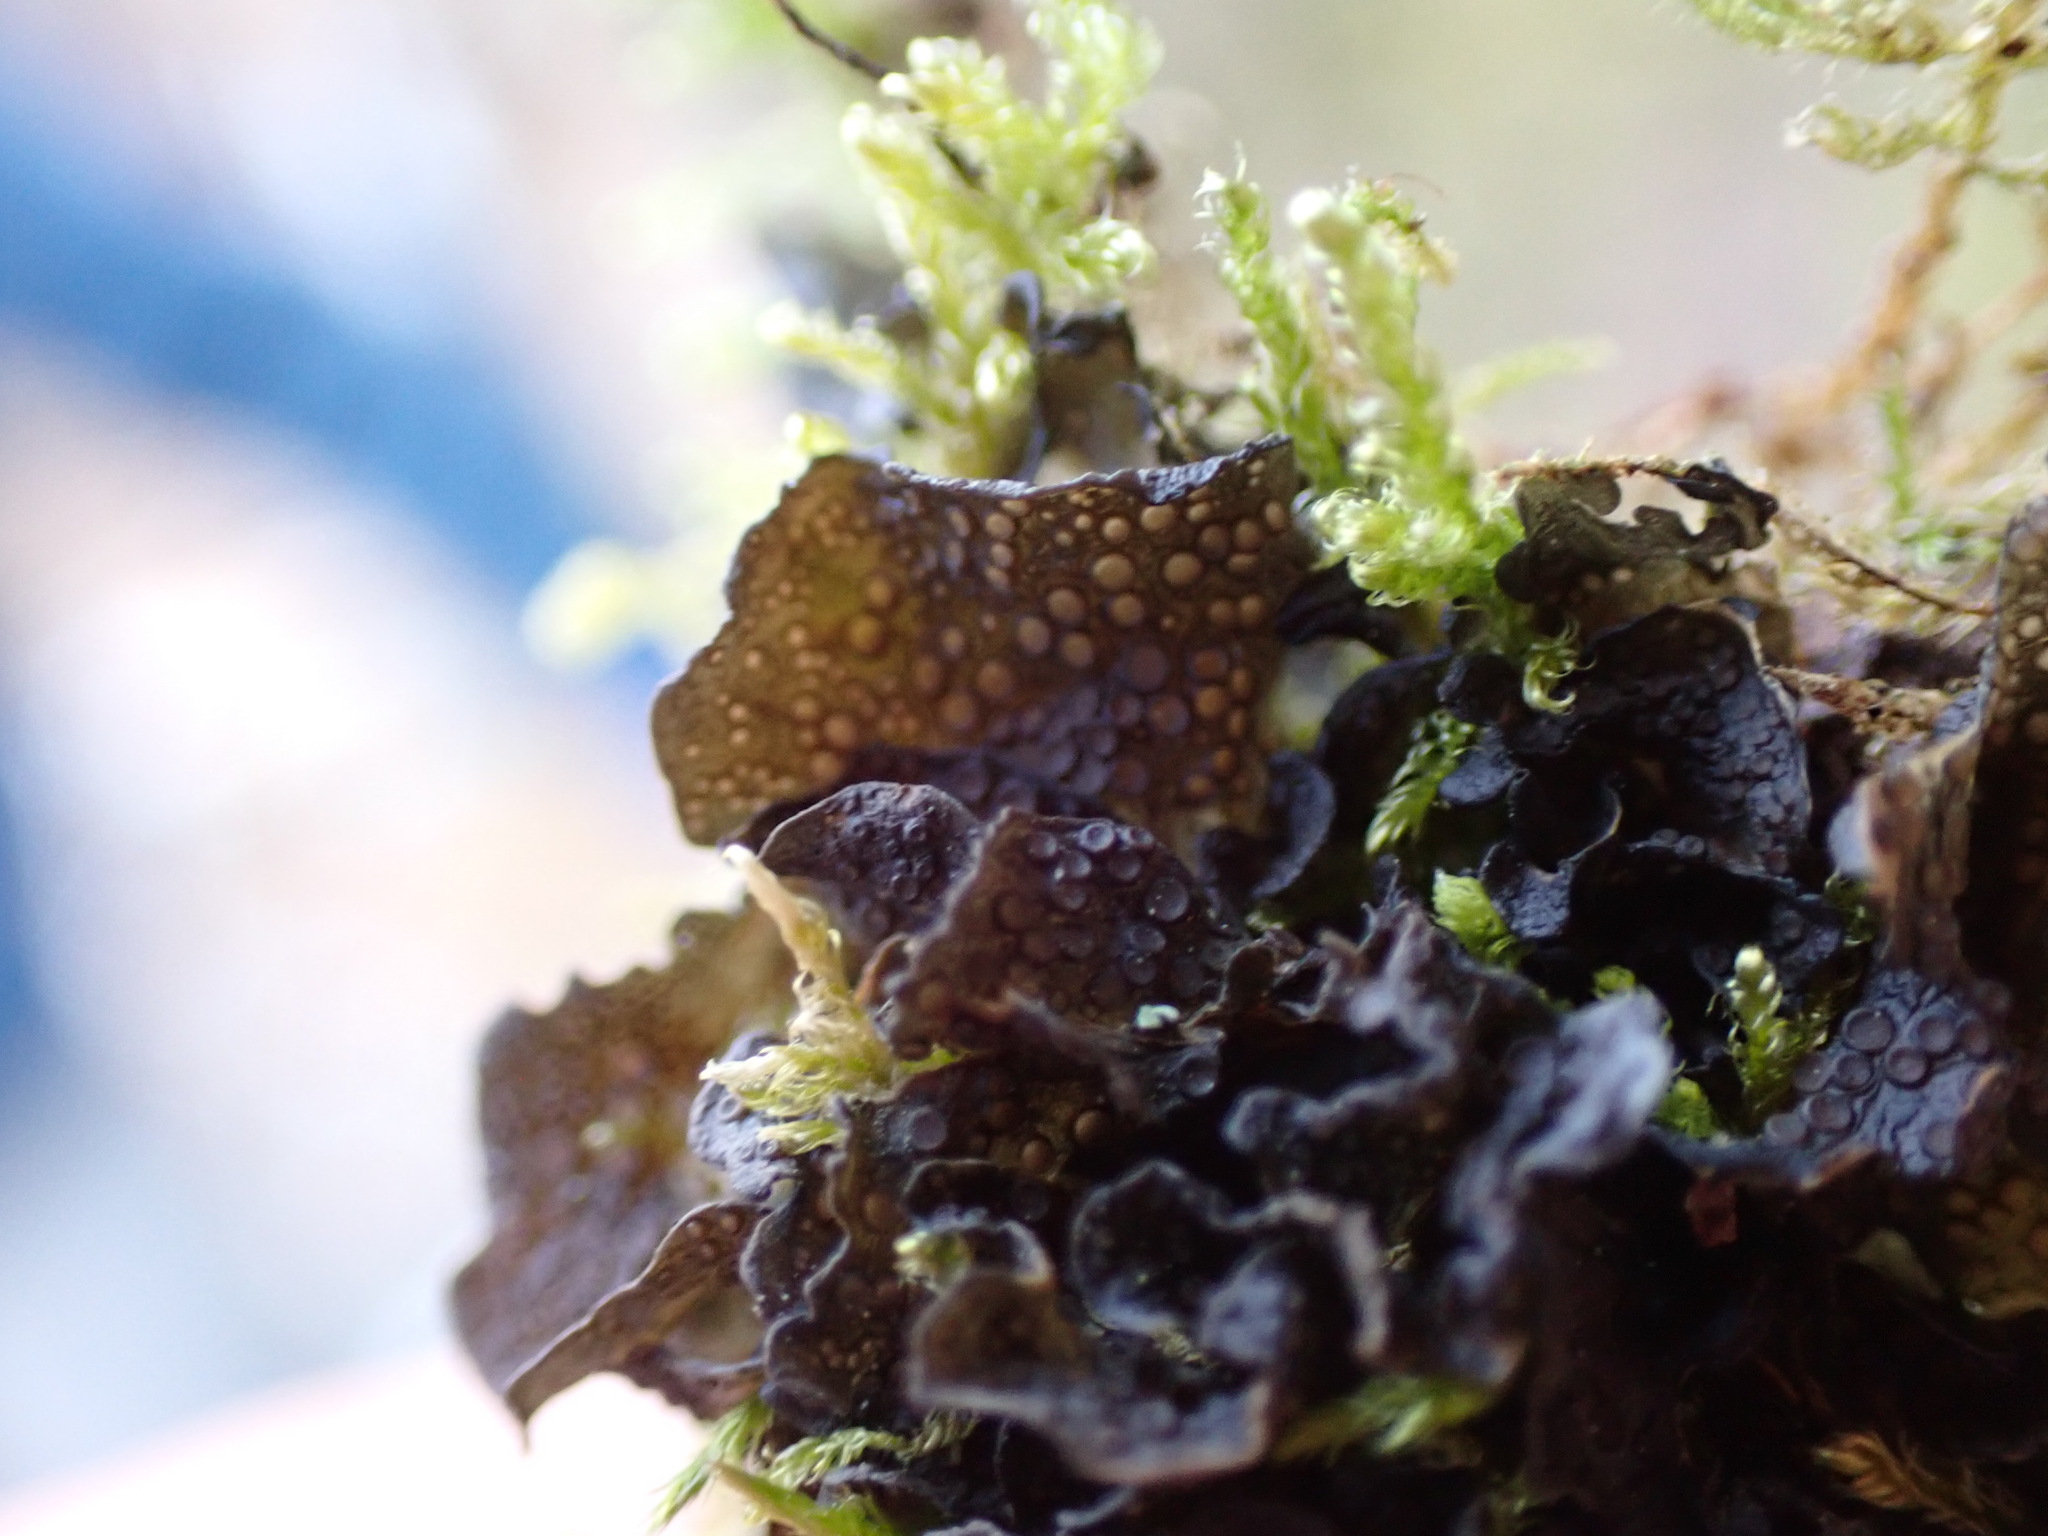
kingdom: Fungi
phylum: Ascomycota
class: Lecanoromycetes
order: Peltigerales
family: Collemataceae
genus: Scytinium
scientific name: Scytinium polycarpum
